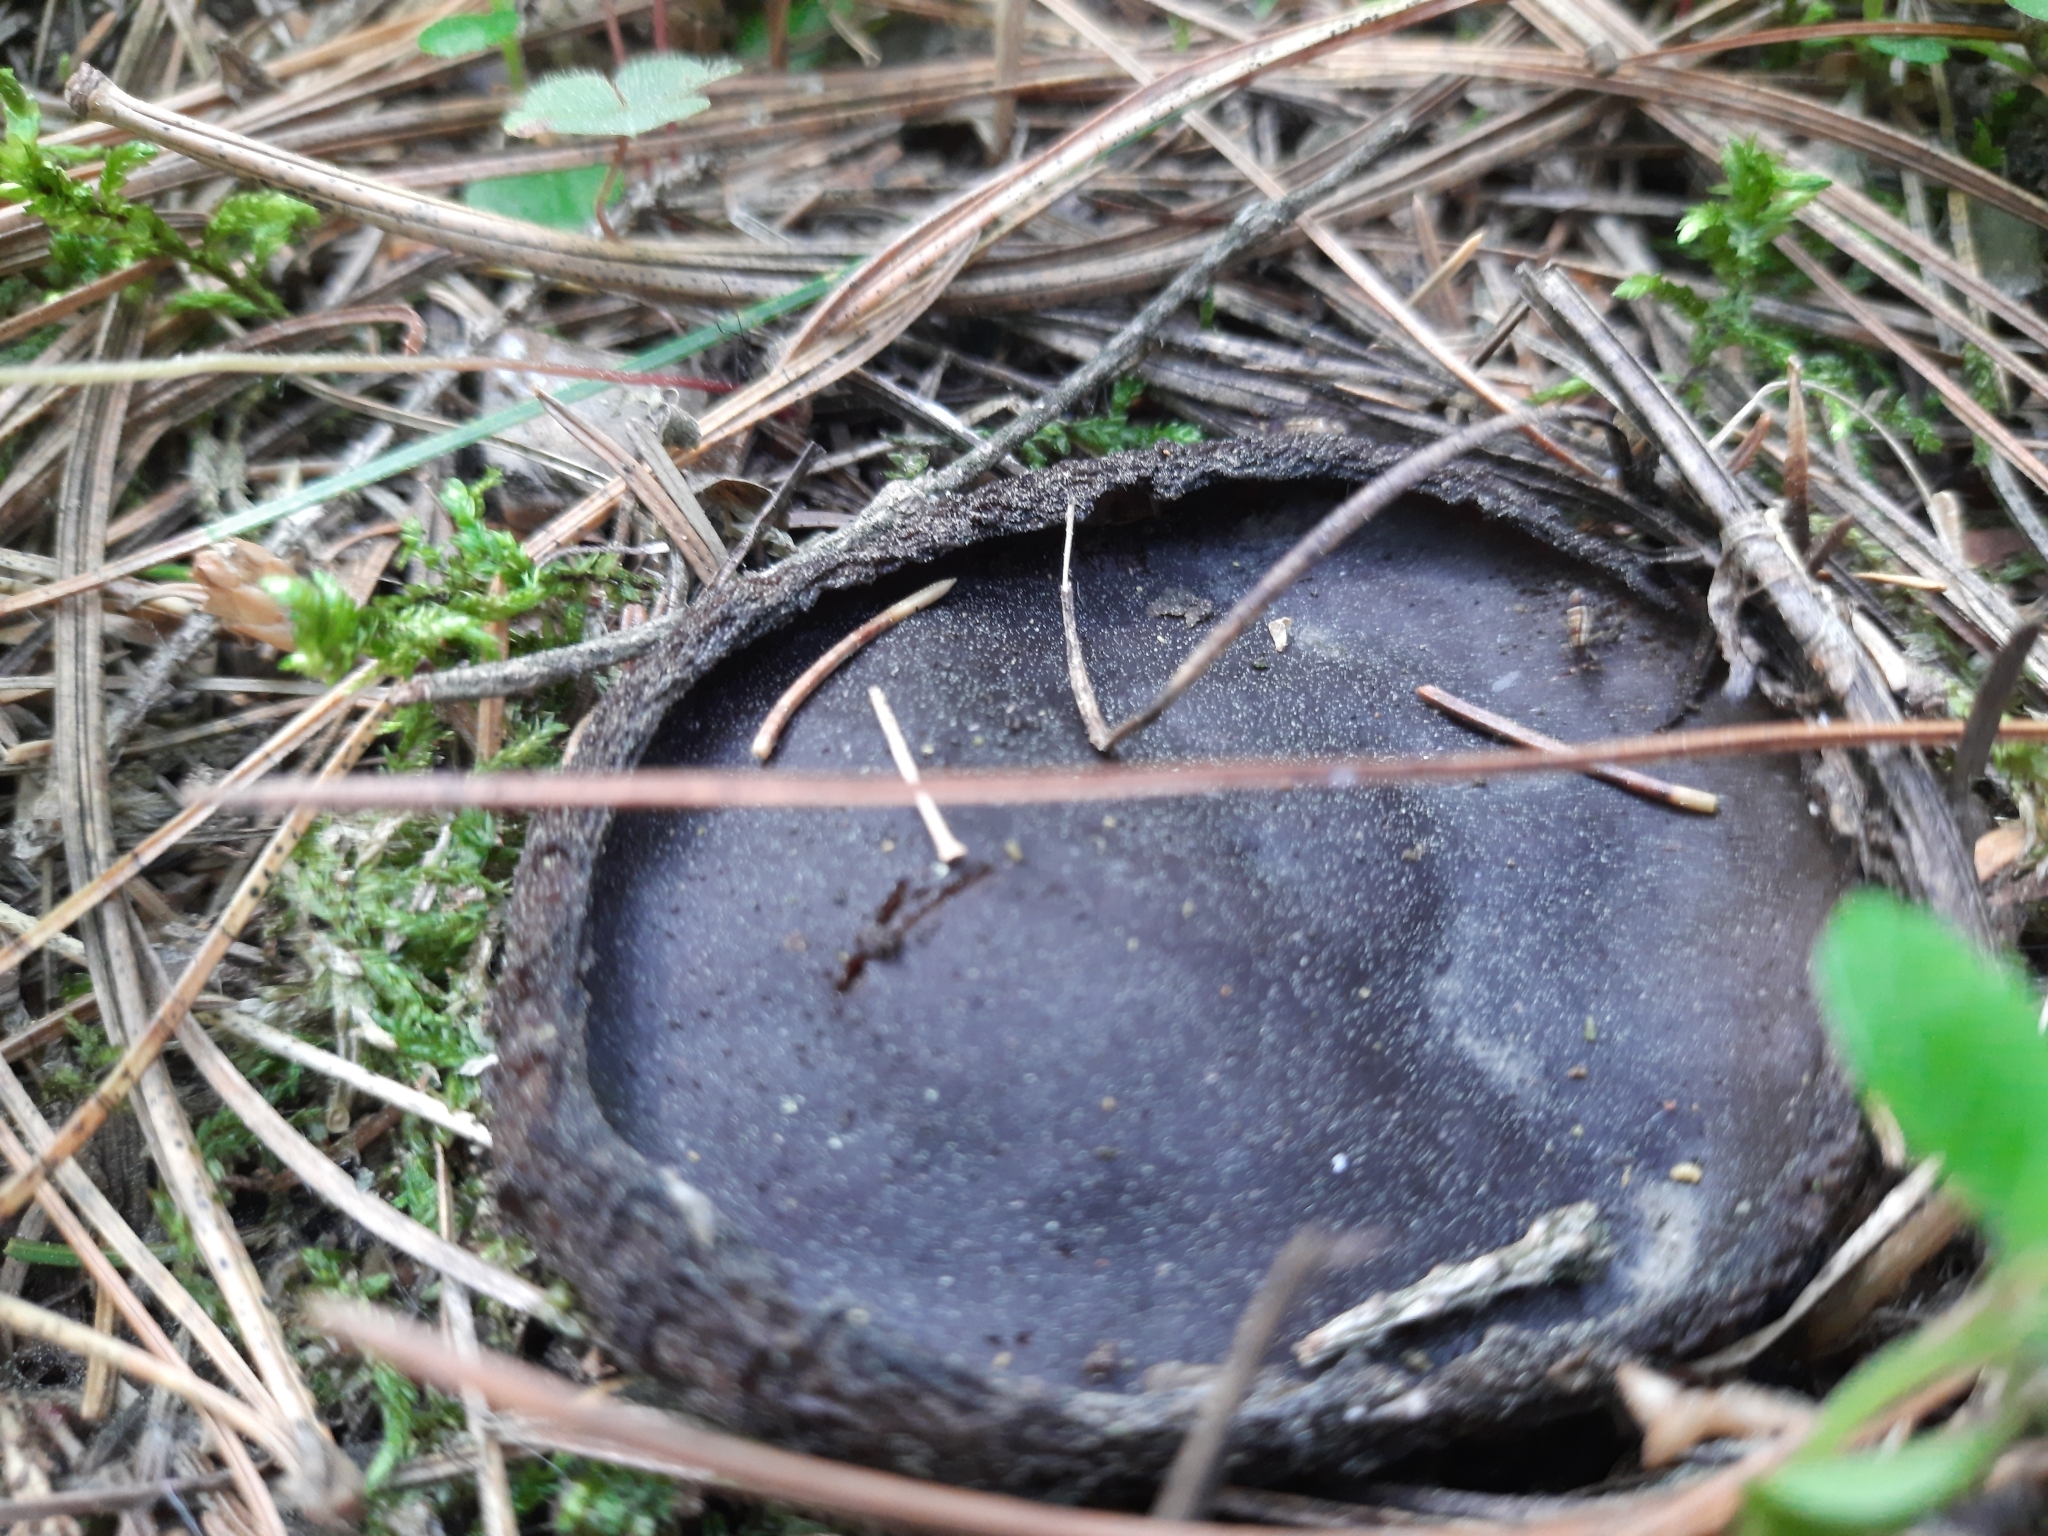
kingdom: Fungi
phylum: Ascomycota
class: Pezizomycetes
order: Pezizales
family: Sarcosomataceae
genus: Sarcosoma
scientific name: Sarcosoma globosum
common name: Charred-pancake cup
